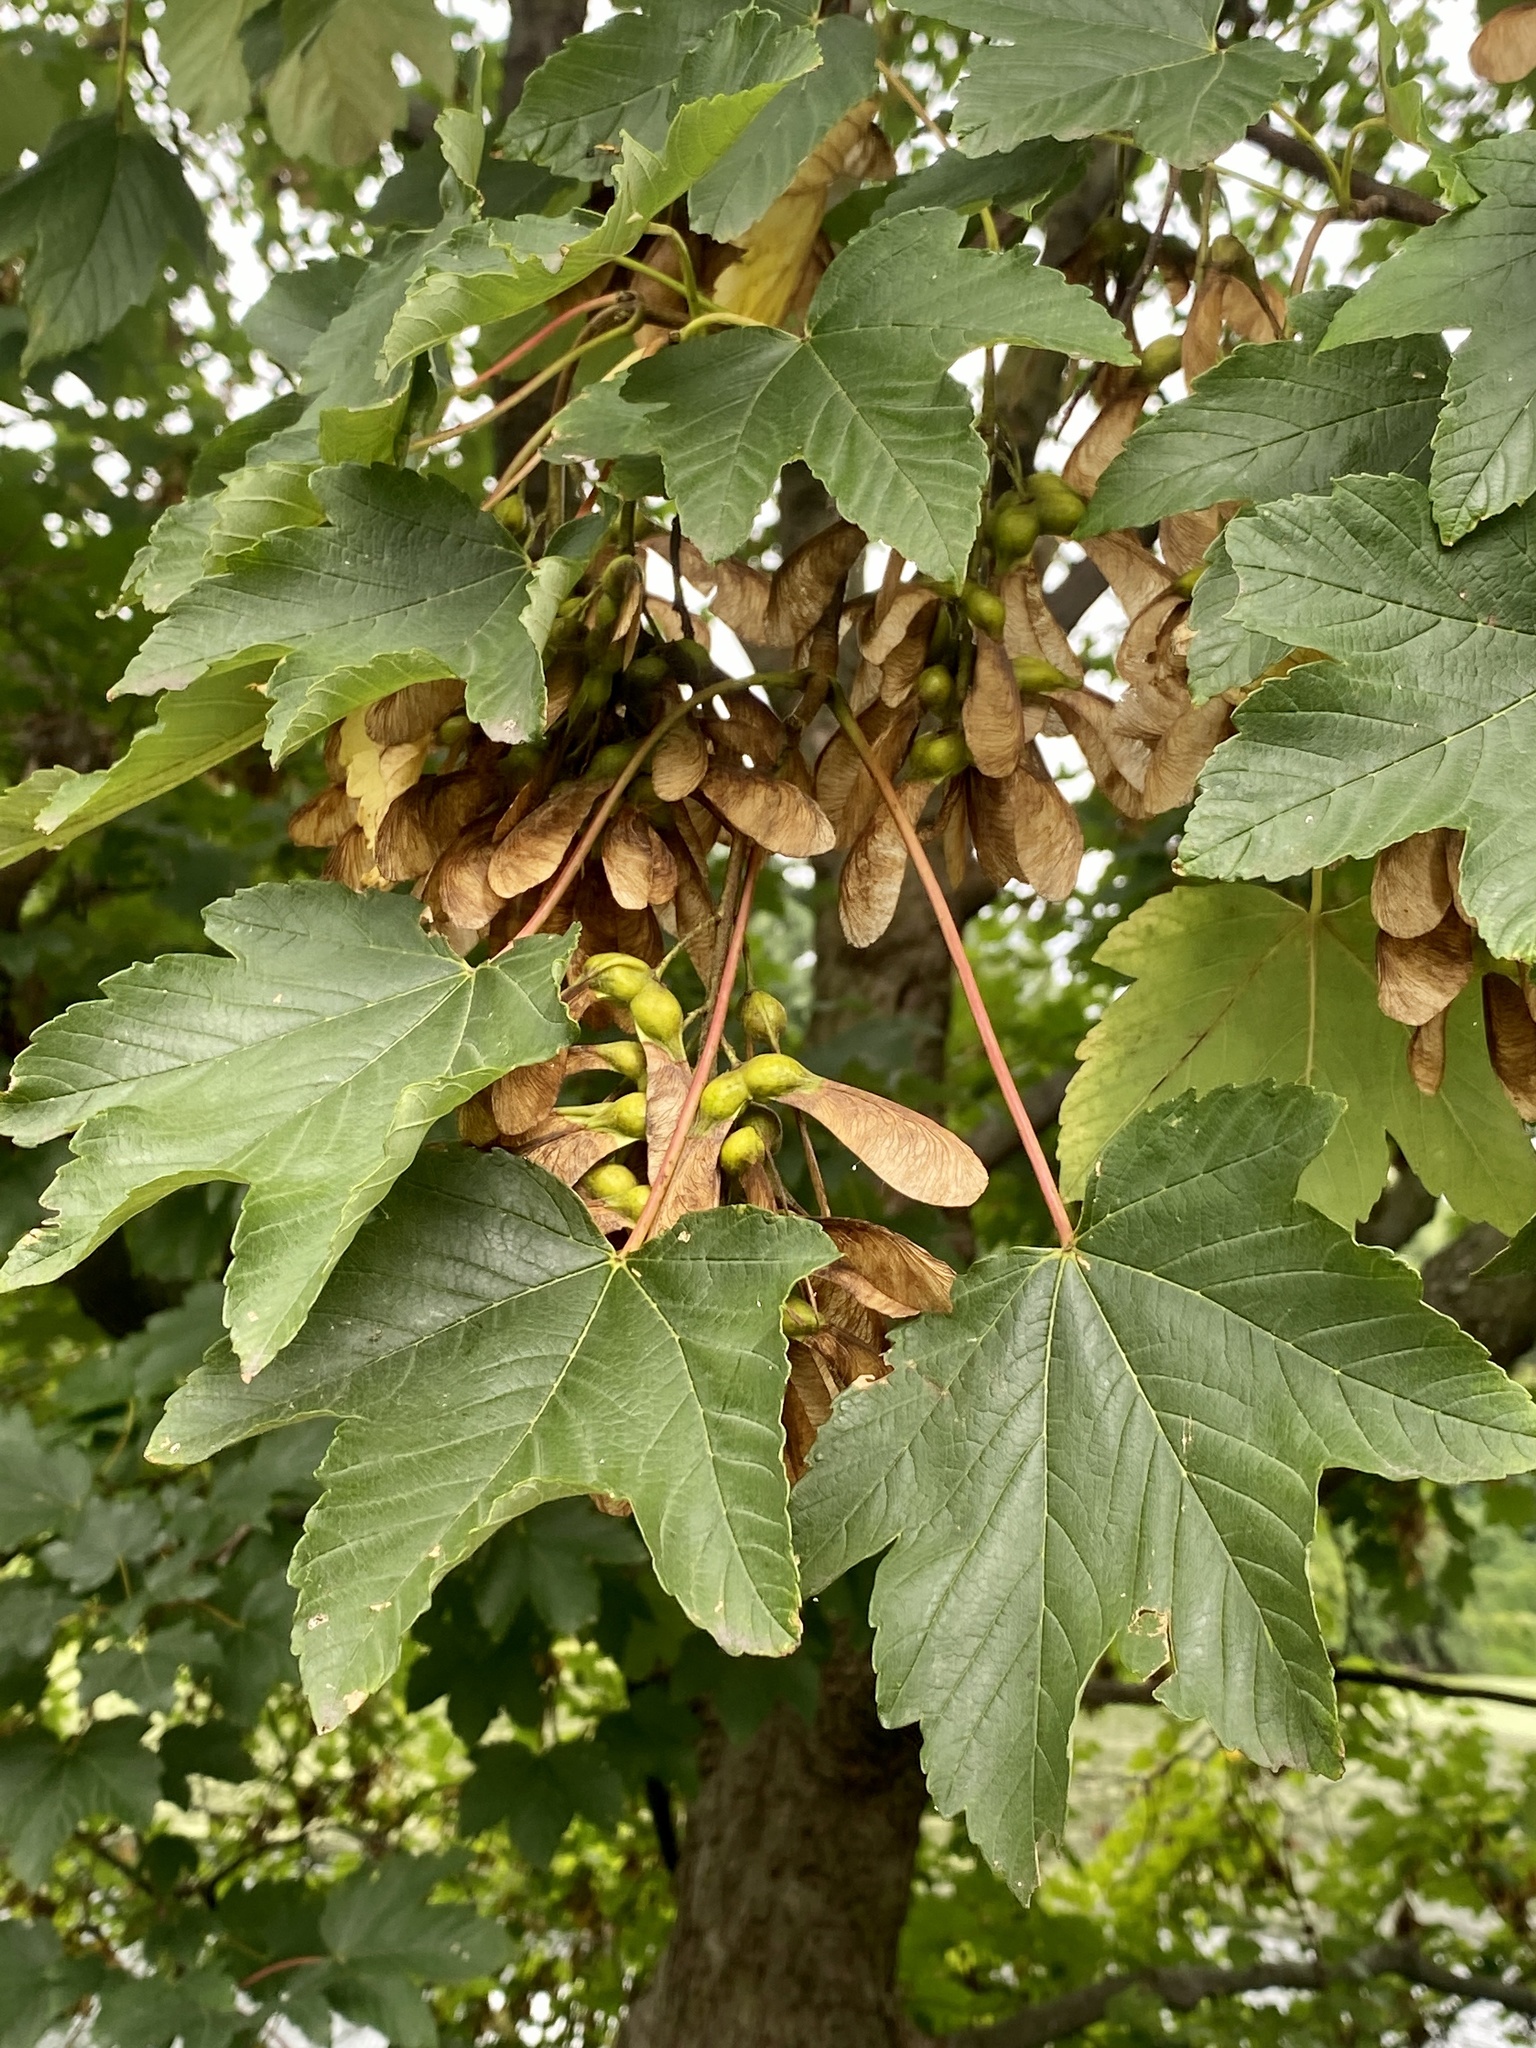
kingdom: Plantae
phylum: Tracheophyta
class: Magnoliopsida
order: Sapindales
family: Sapindaceae
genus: Acer
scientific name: Acer pseudoplatanus
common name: Sycamore
